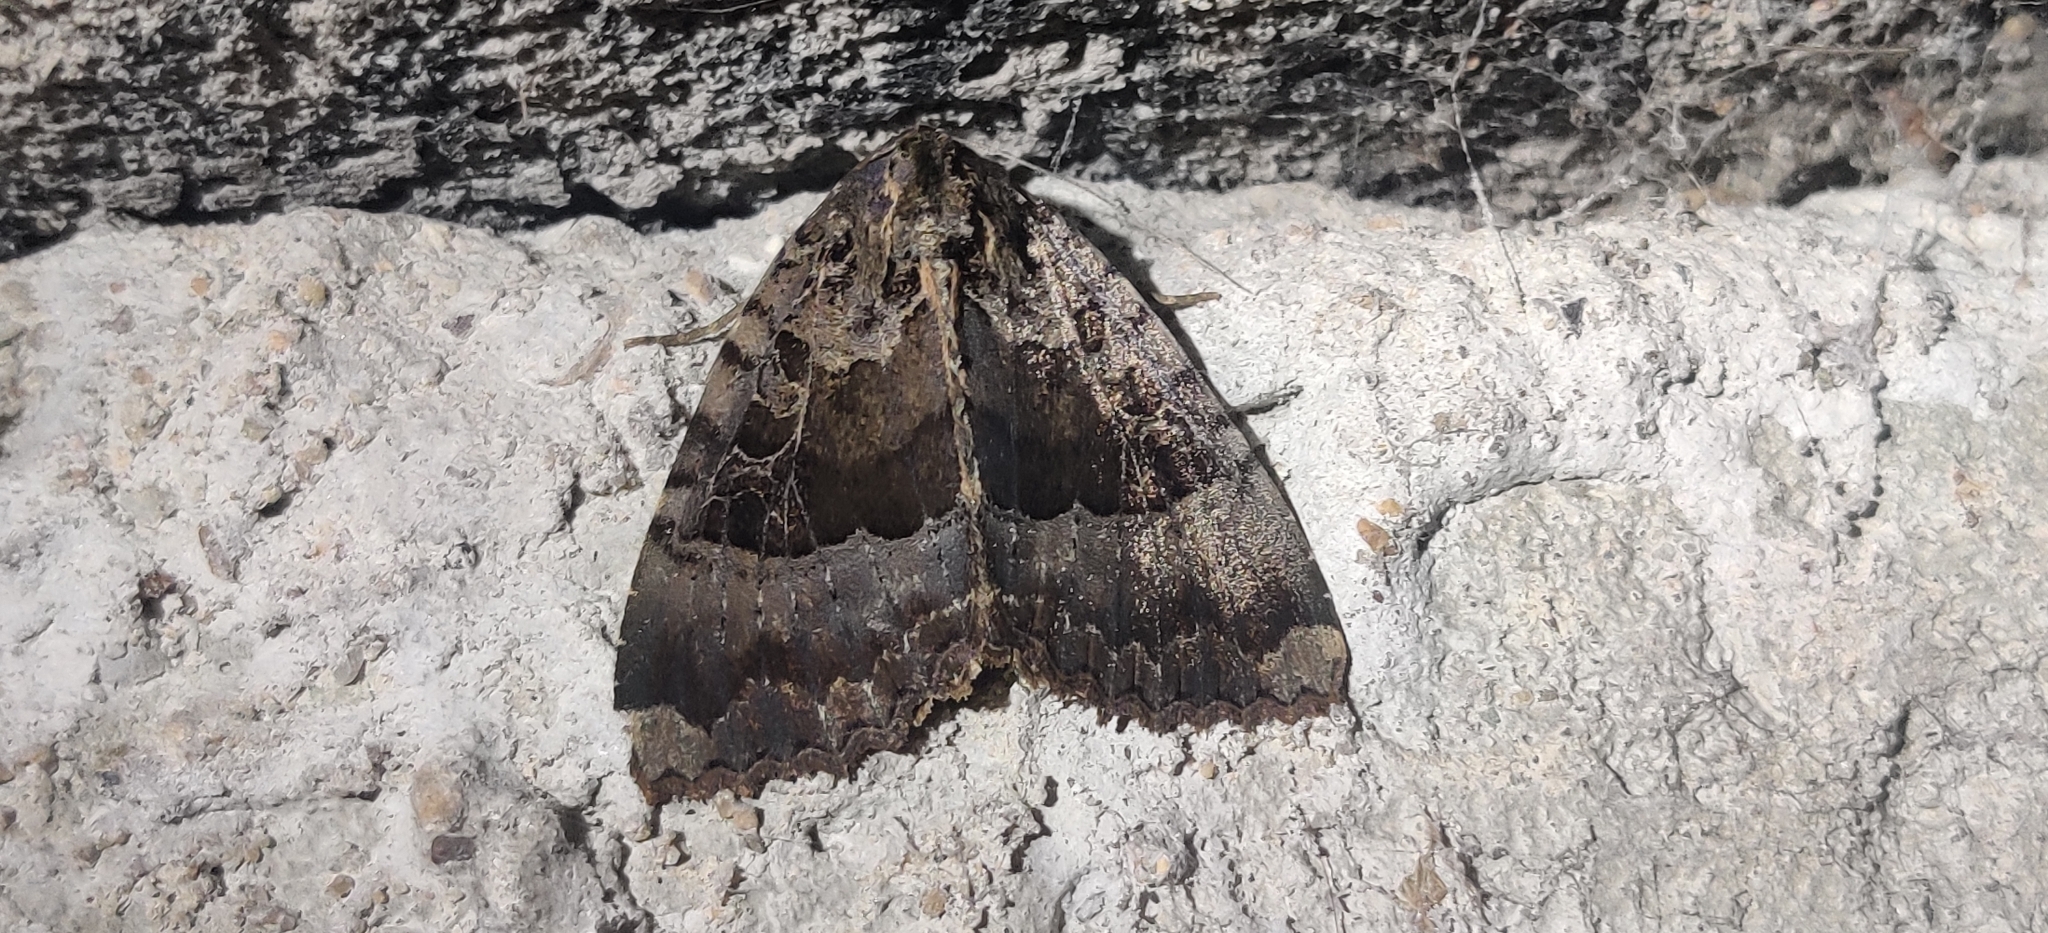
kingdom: Animalia
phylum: Arthropoda
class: Insecta
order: Lepidoptera
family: Noctuidae
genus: Mormo
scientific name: Mormo maura
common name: Old lady
